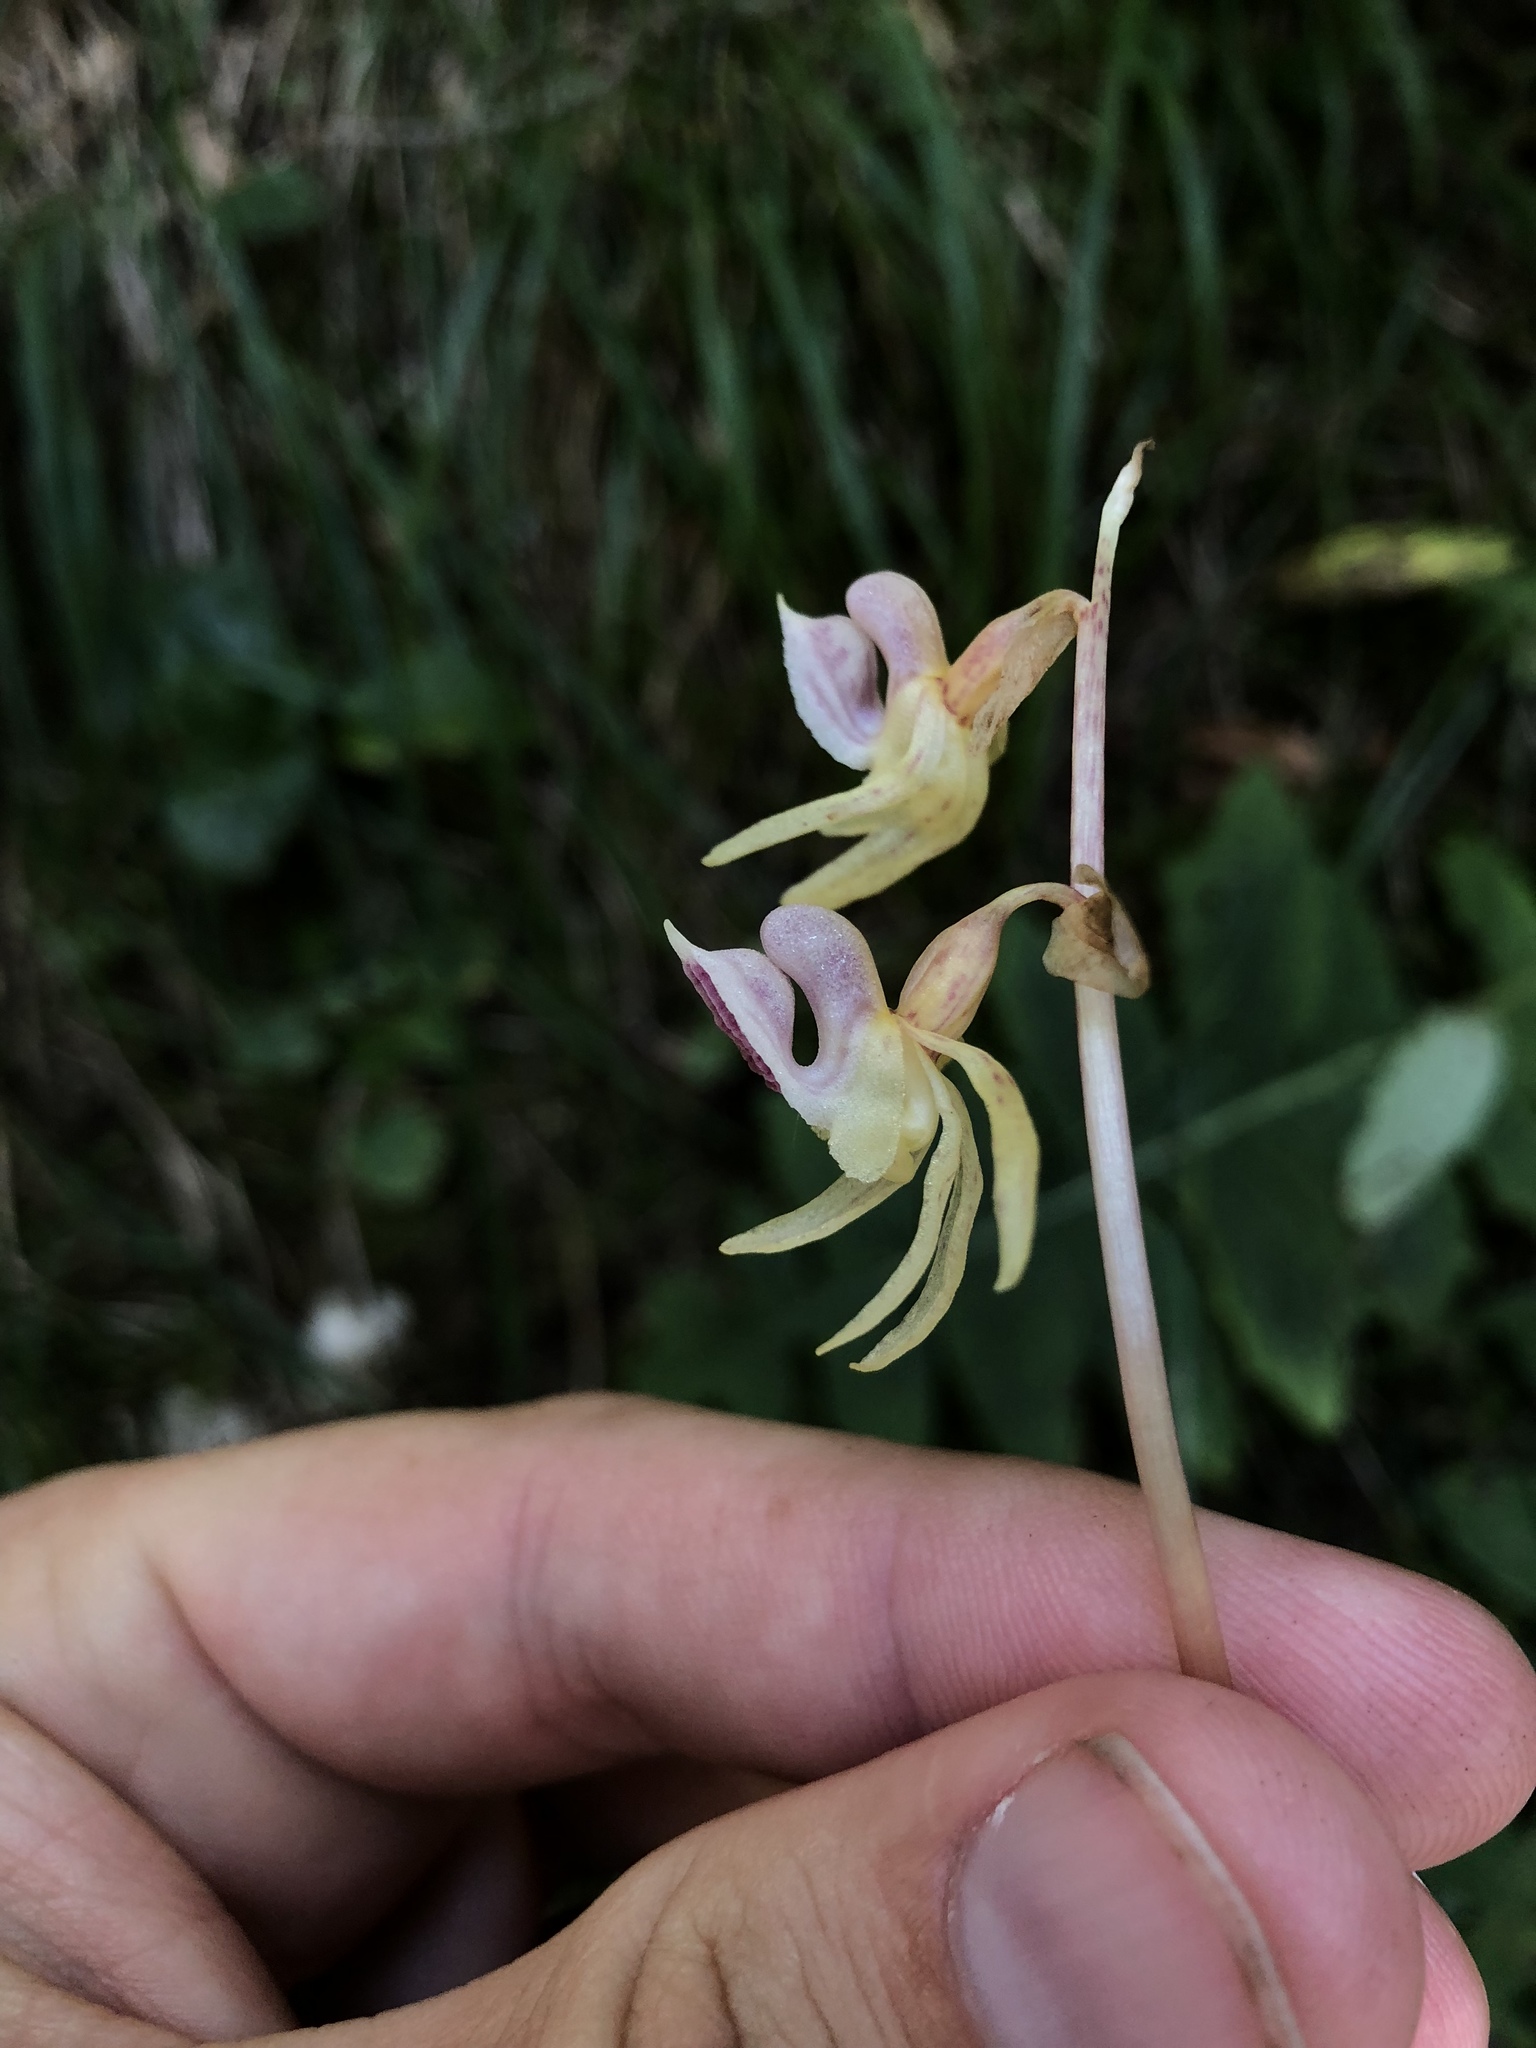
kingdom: Plantae
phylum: Tracheophyta
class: Liliopsida
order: Asparagales
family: Orchidaceae
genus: Epipogium
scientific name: Epipogium aphyllum
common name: Ghost orchid
